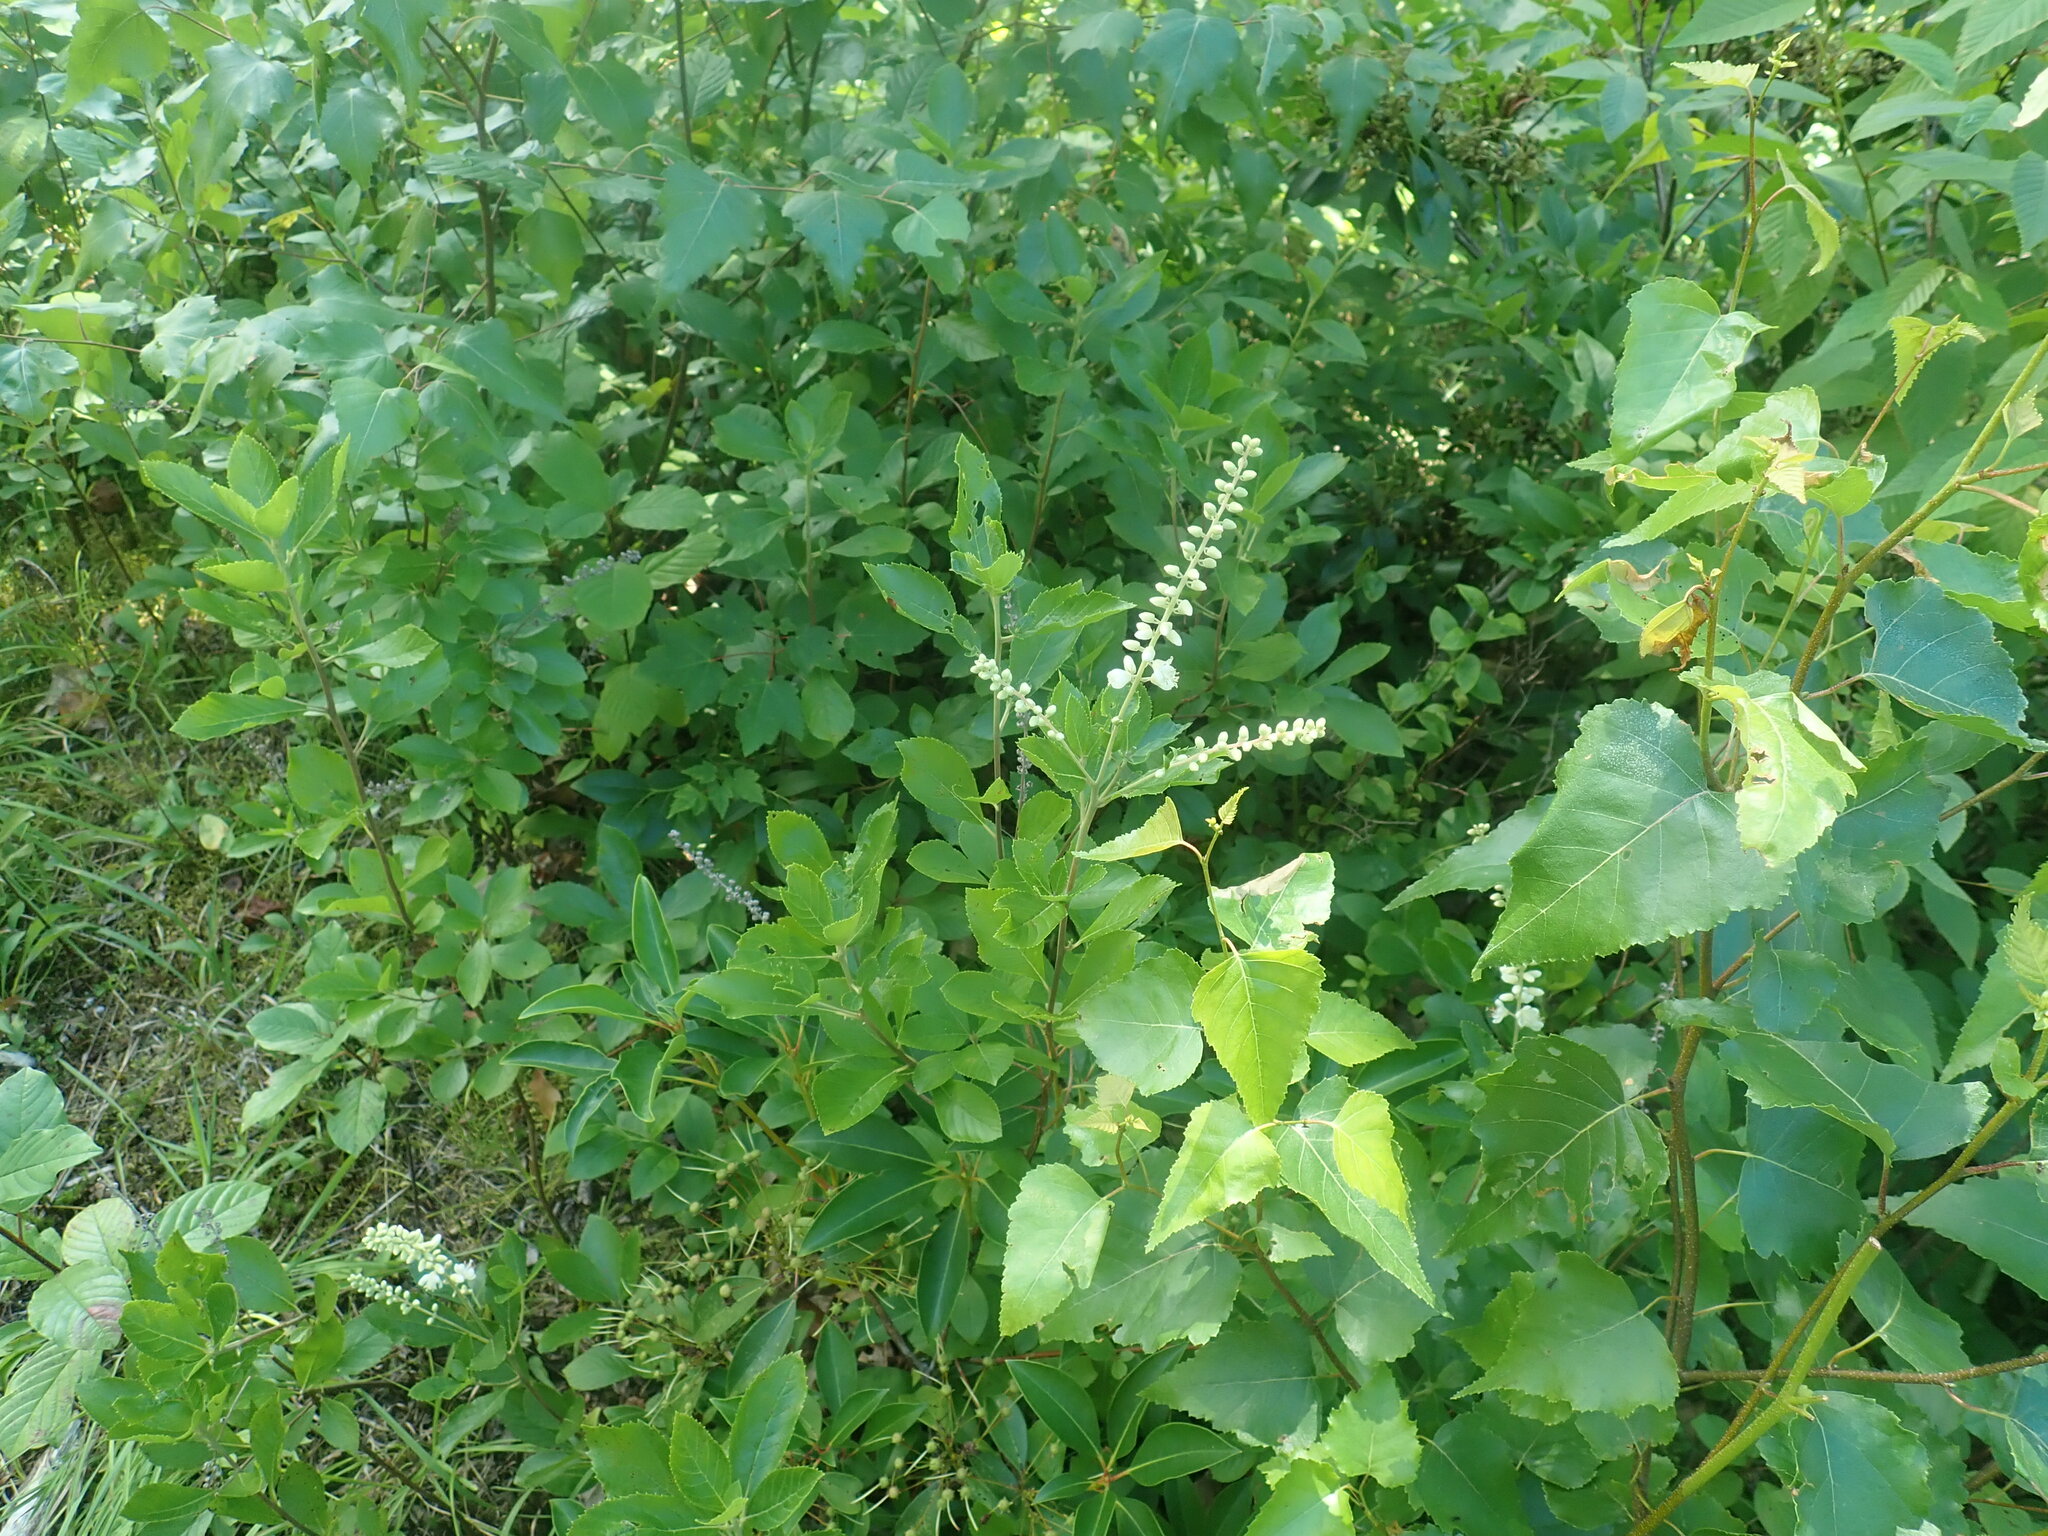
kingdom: Plantae
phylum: Tracheophyta
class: Magnoliopsida
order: Ericales
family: Clethraceae
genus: Clethra
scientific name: Clethra alnifolia
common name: Sweet pepperbush
